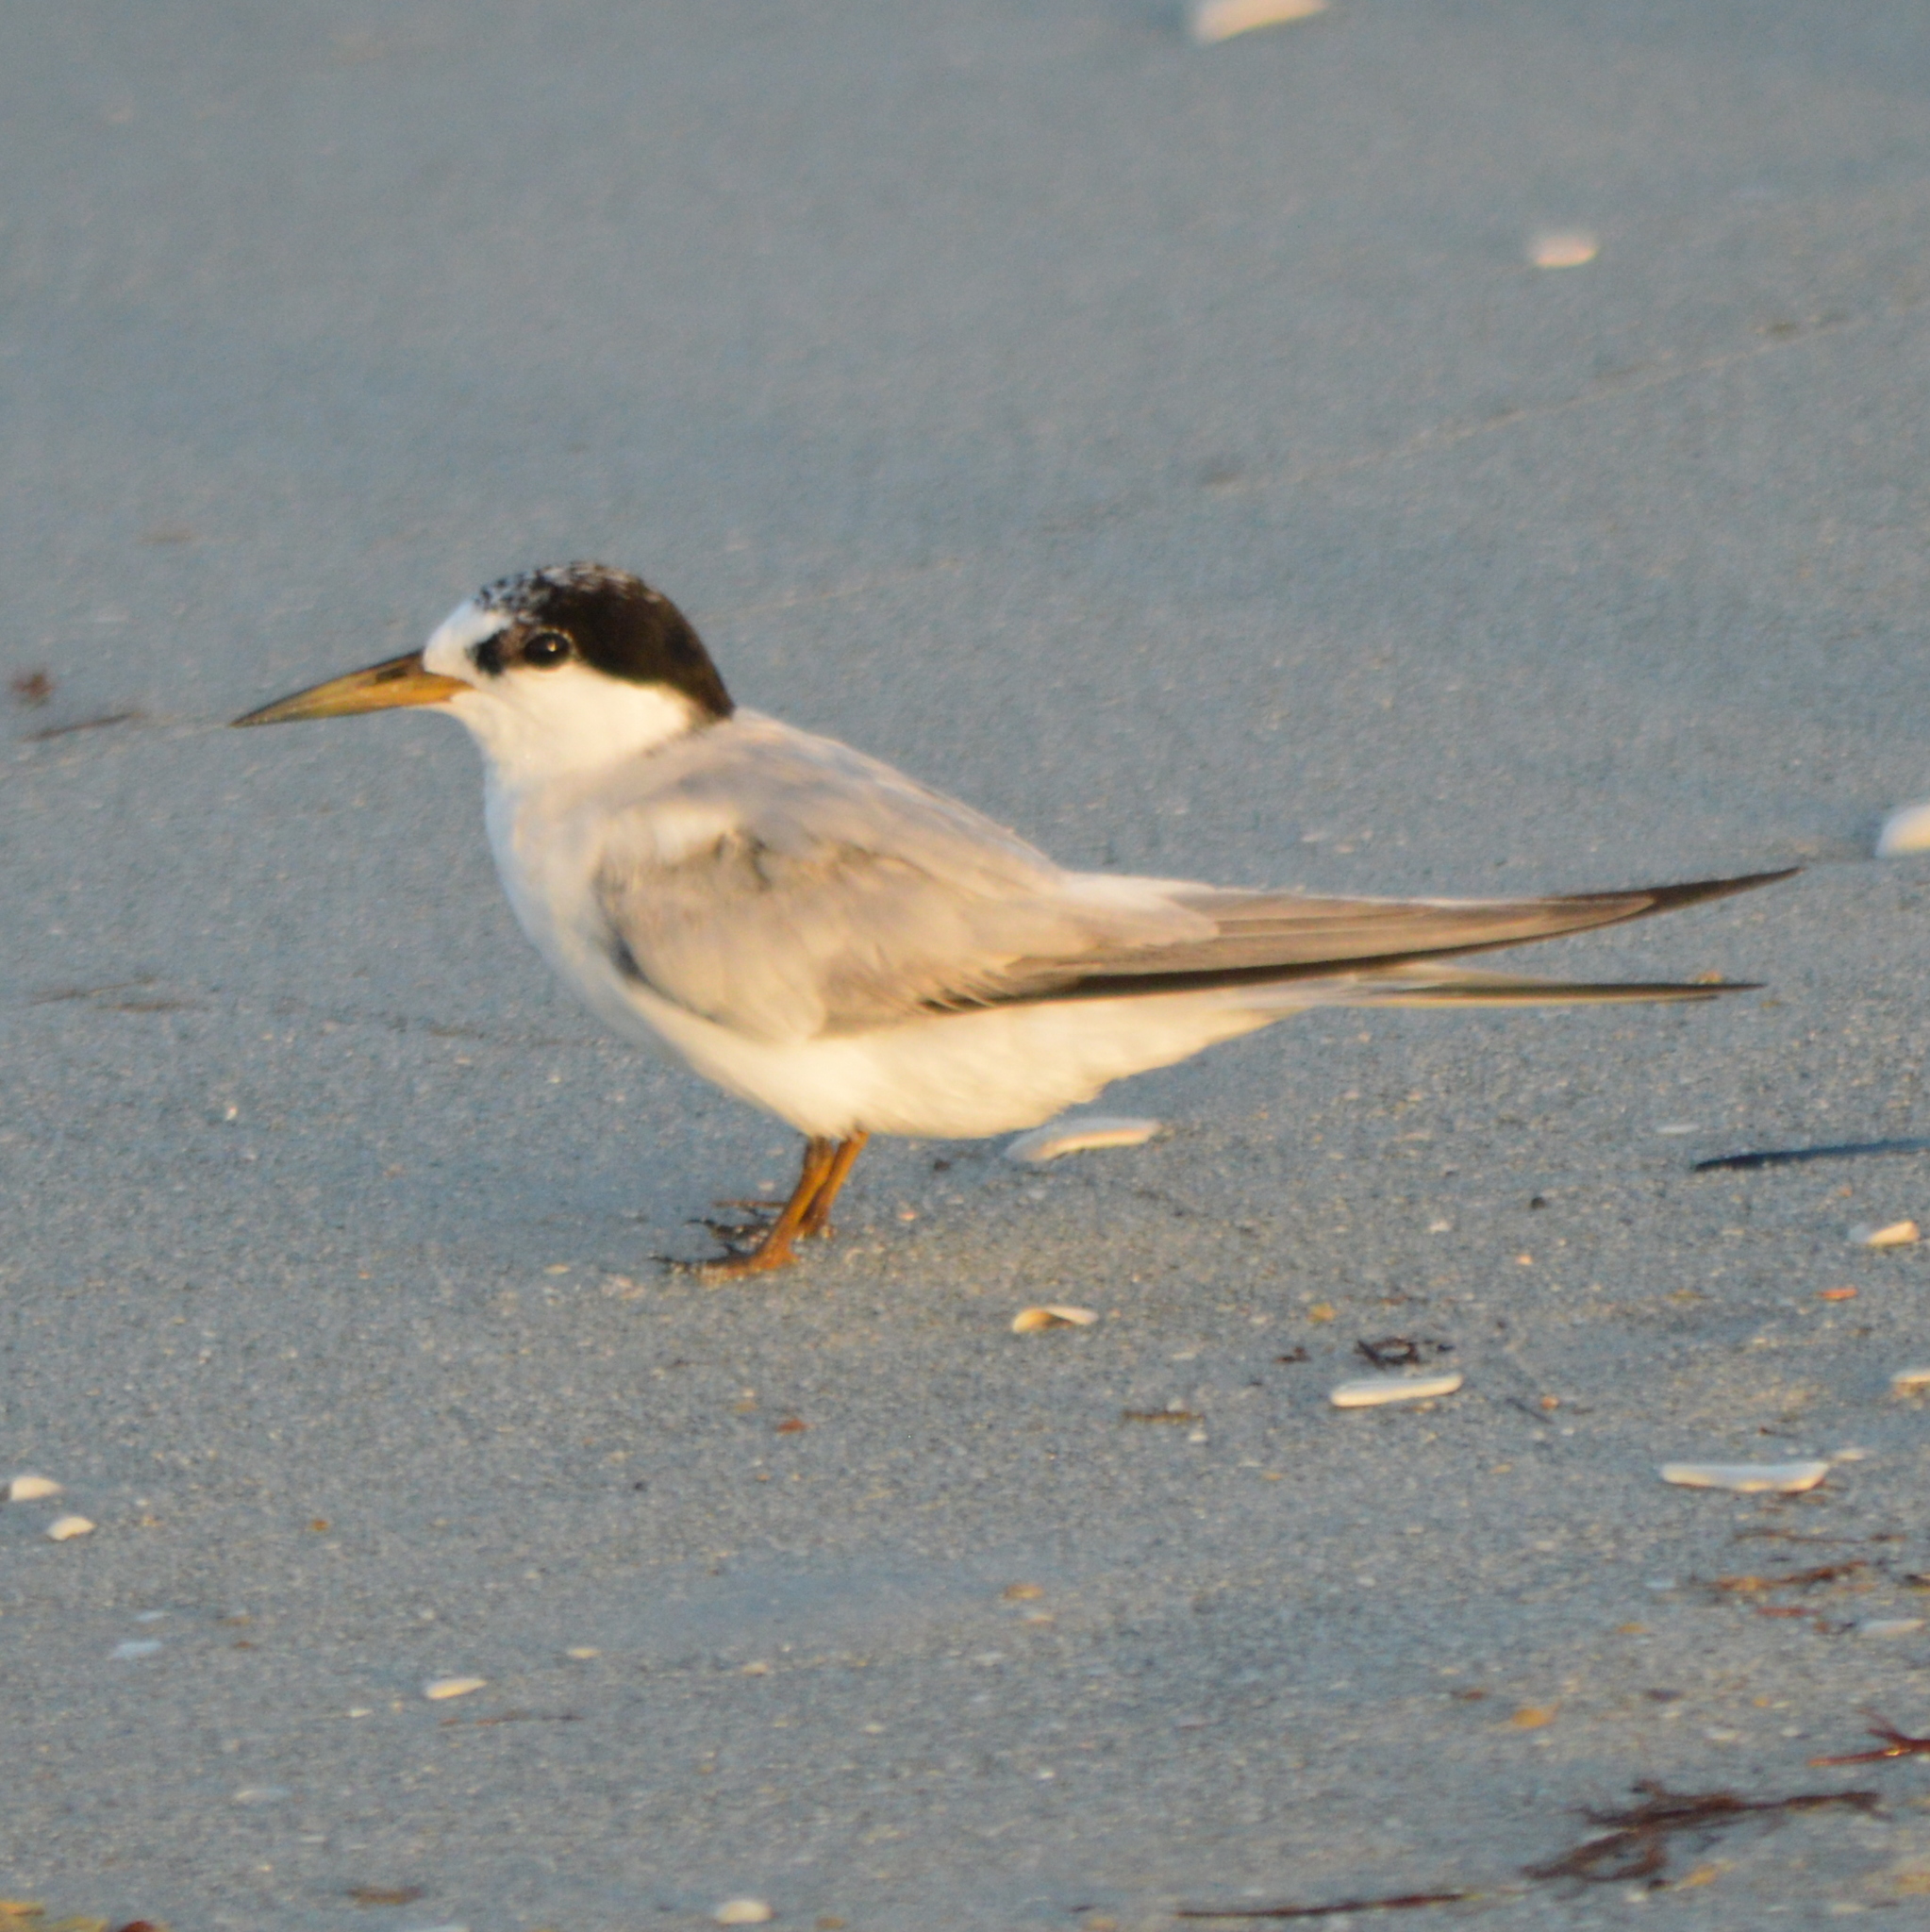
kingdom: Animalia
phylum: Chordata
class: Aves
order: Charadriiformes
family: Laridae
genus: Sternula
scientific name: Sternula antillarum
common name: Least tern
